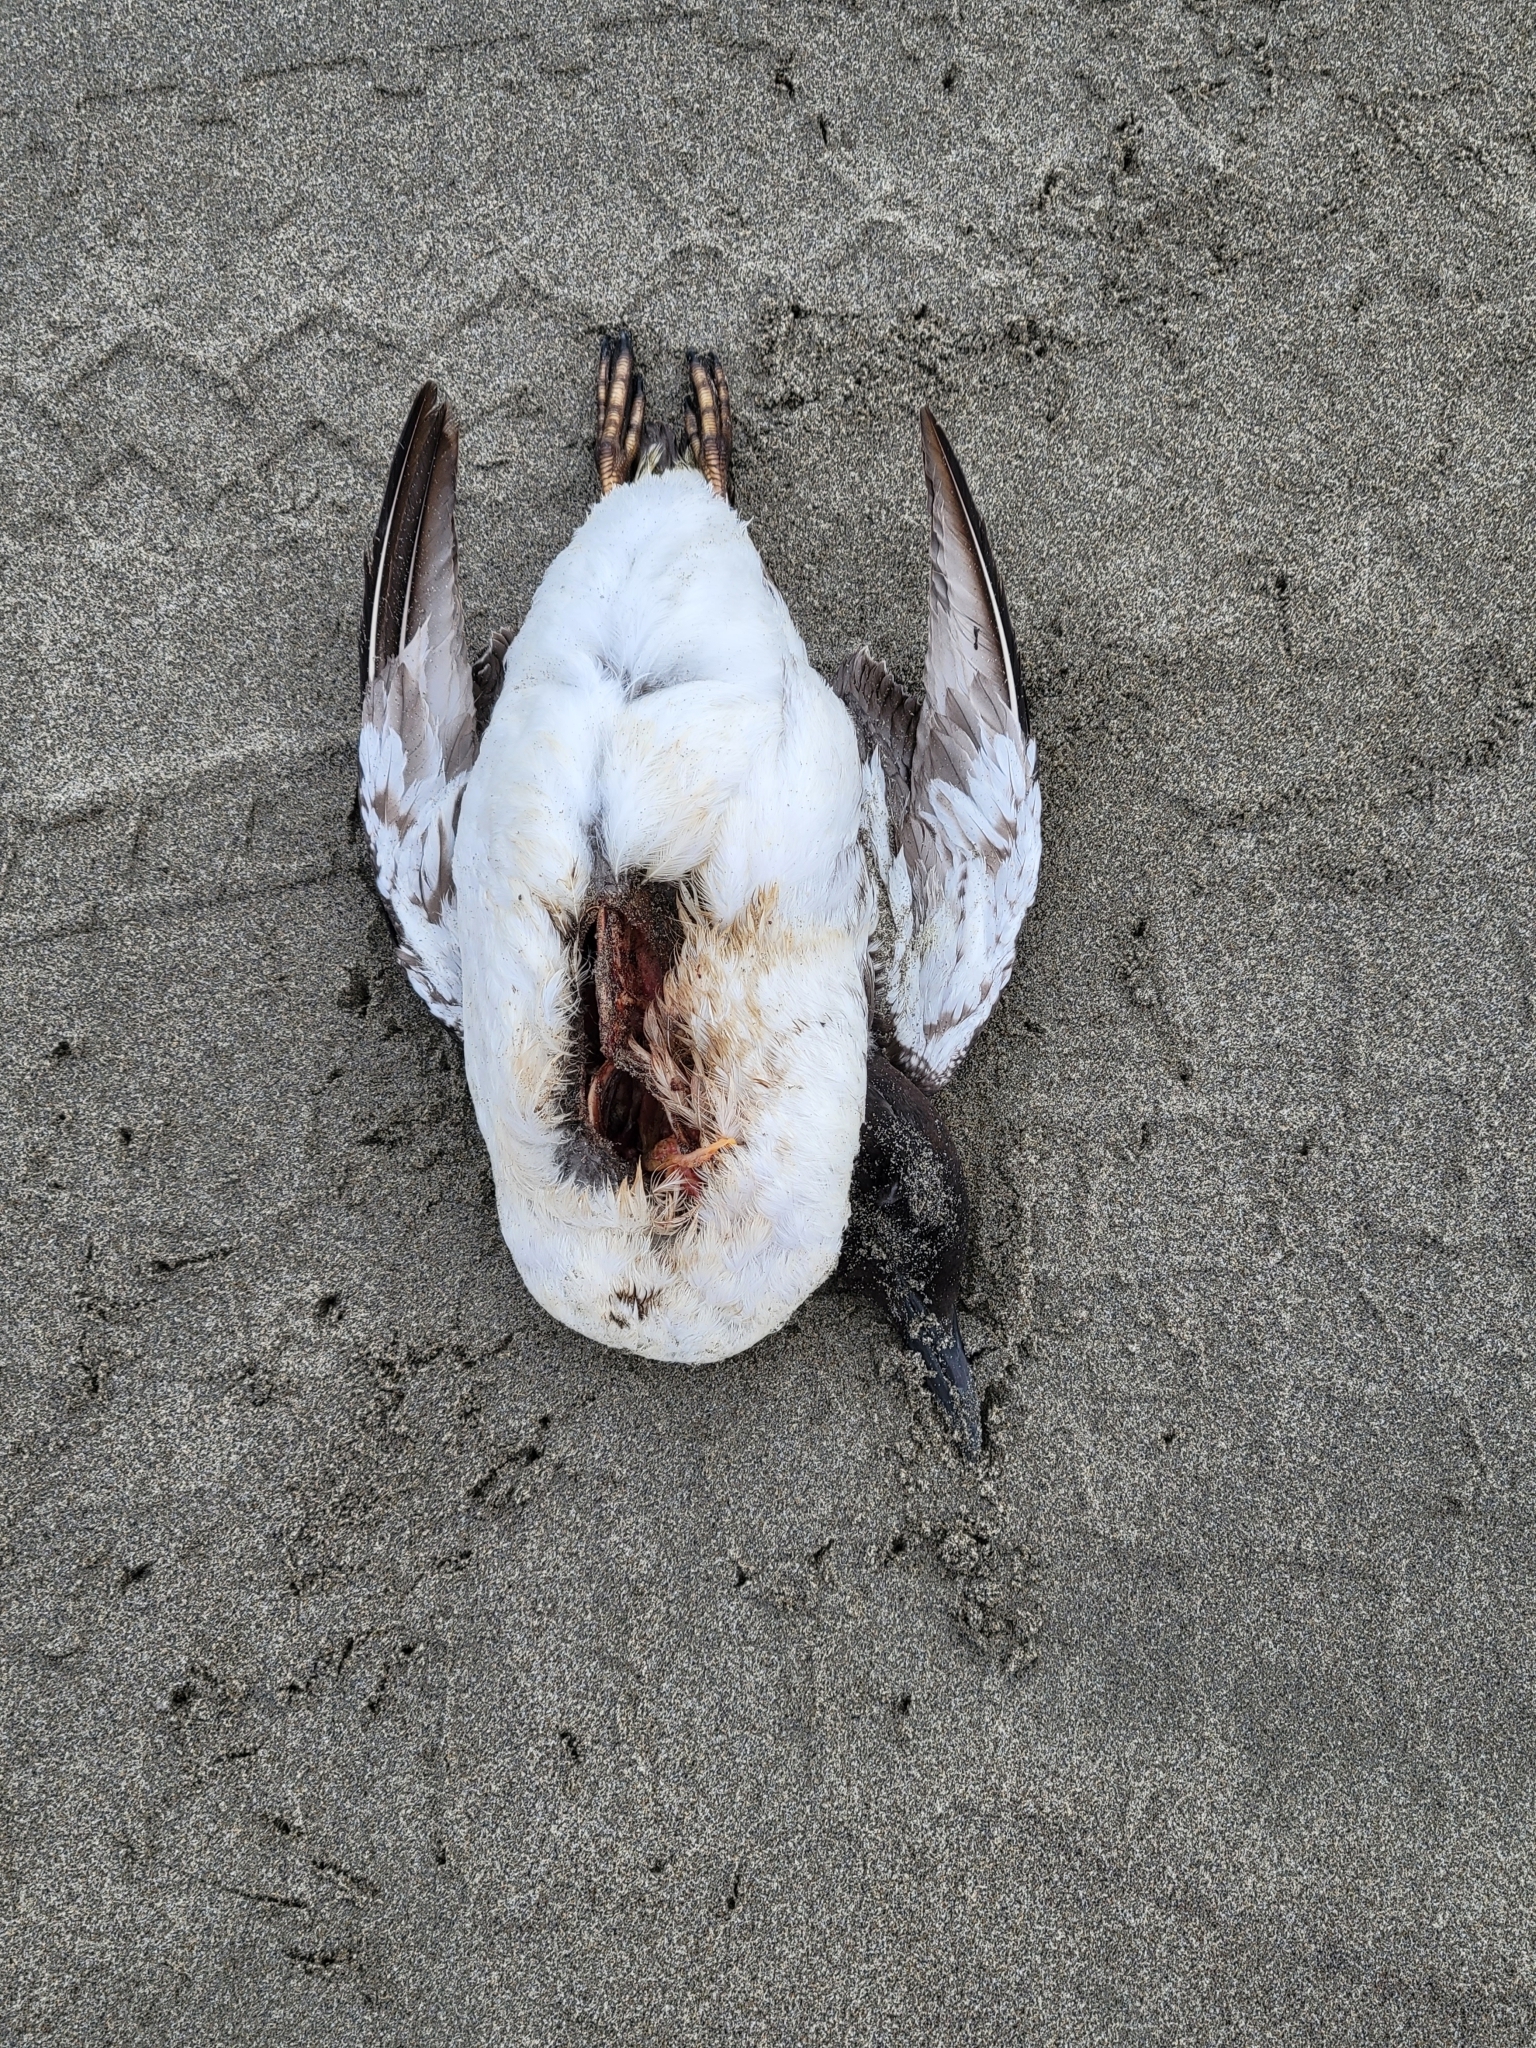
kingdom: Animalia
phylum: Chordata
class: Aves
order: Charadriiformes
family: Alcidae
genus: Uria
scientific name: Uria aalge
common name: Common murre
